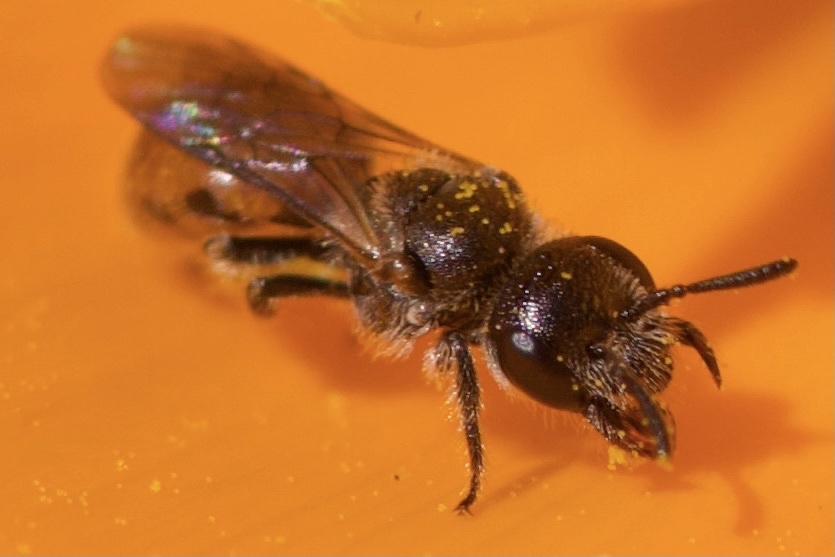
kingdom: Animalia
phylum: Arthropoda
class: Insecta
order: Hymenoptera
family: Halictidae
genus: Micralictoides
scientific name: Micralictoides ruficaudus
